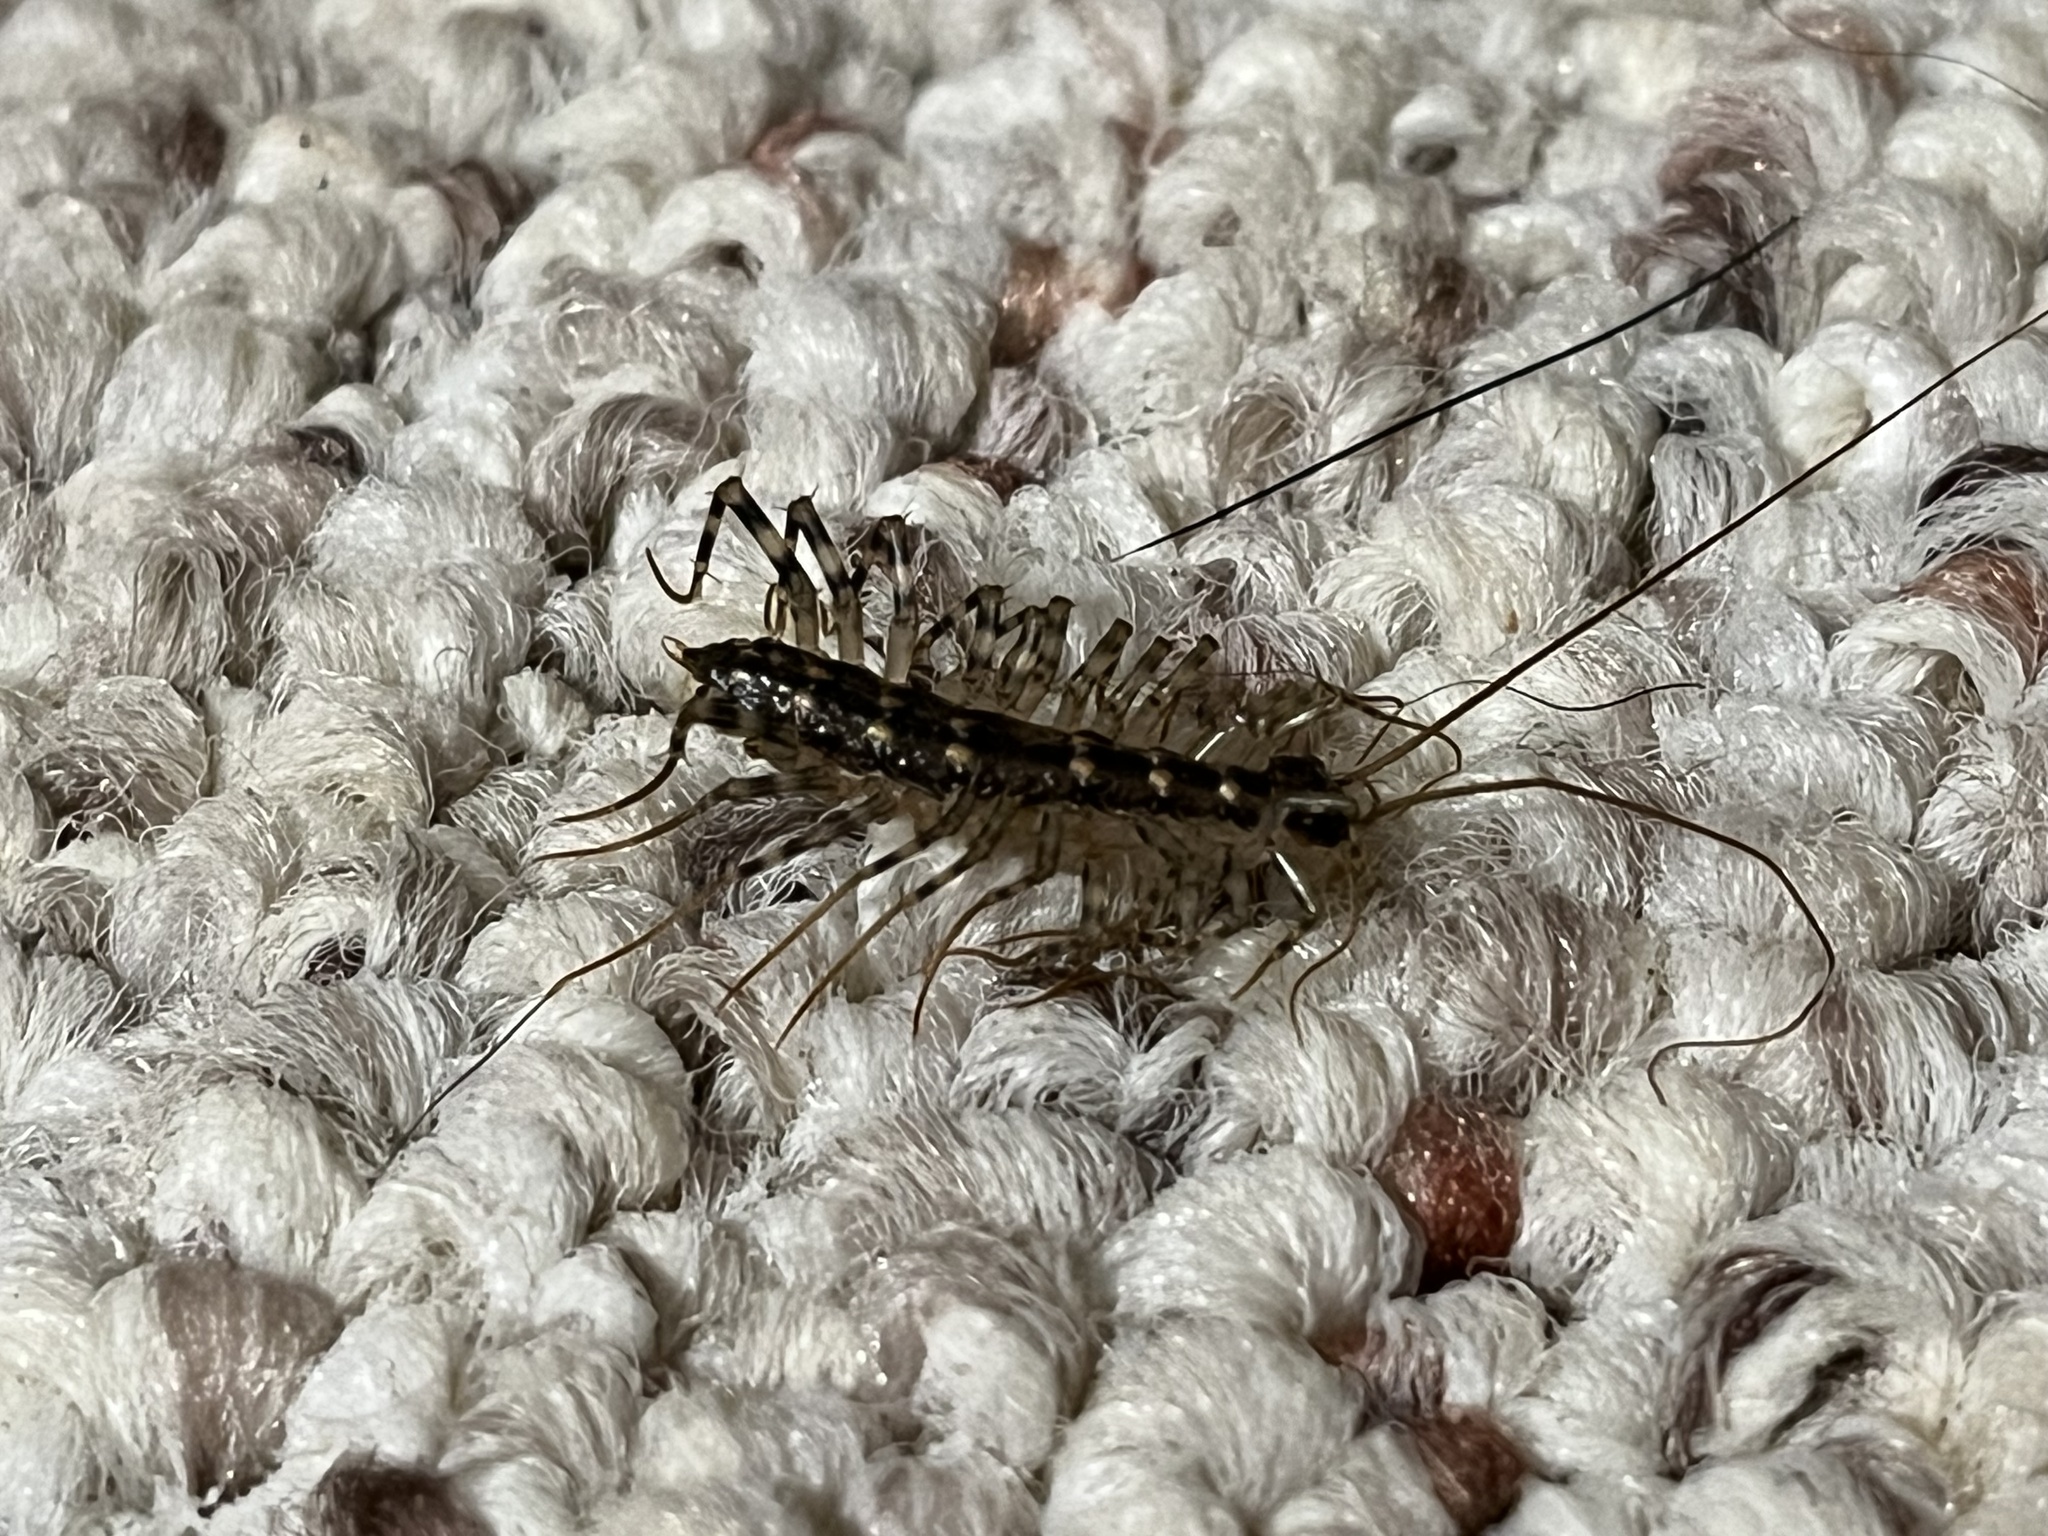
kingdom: Animalia
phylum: Arthropoda
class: Chilopoda
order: Scutigeromorpha
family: Scutigeridae
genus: Thereuonema
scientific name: Thereuonema tuberculata
